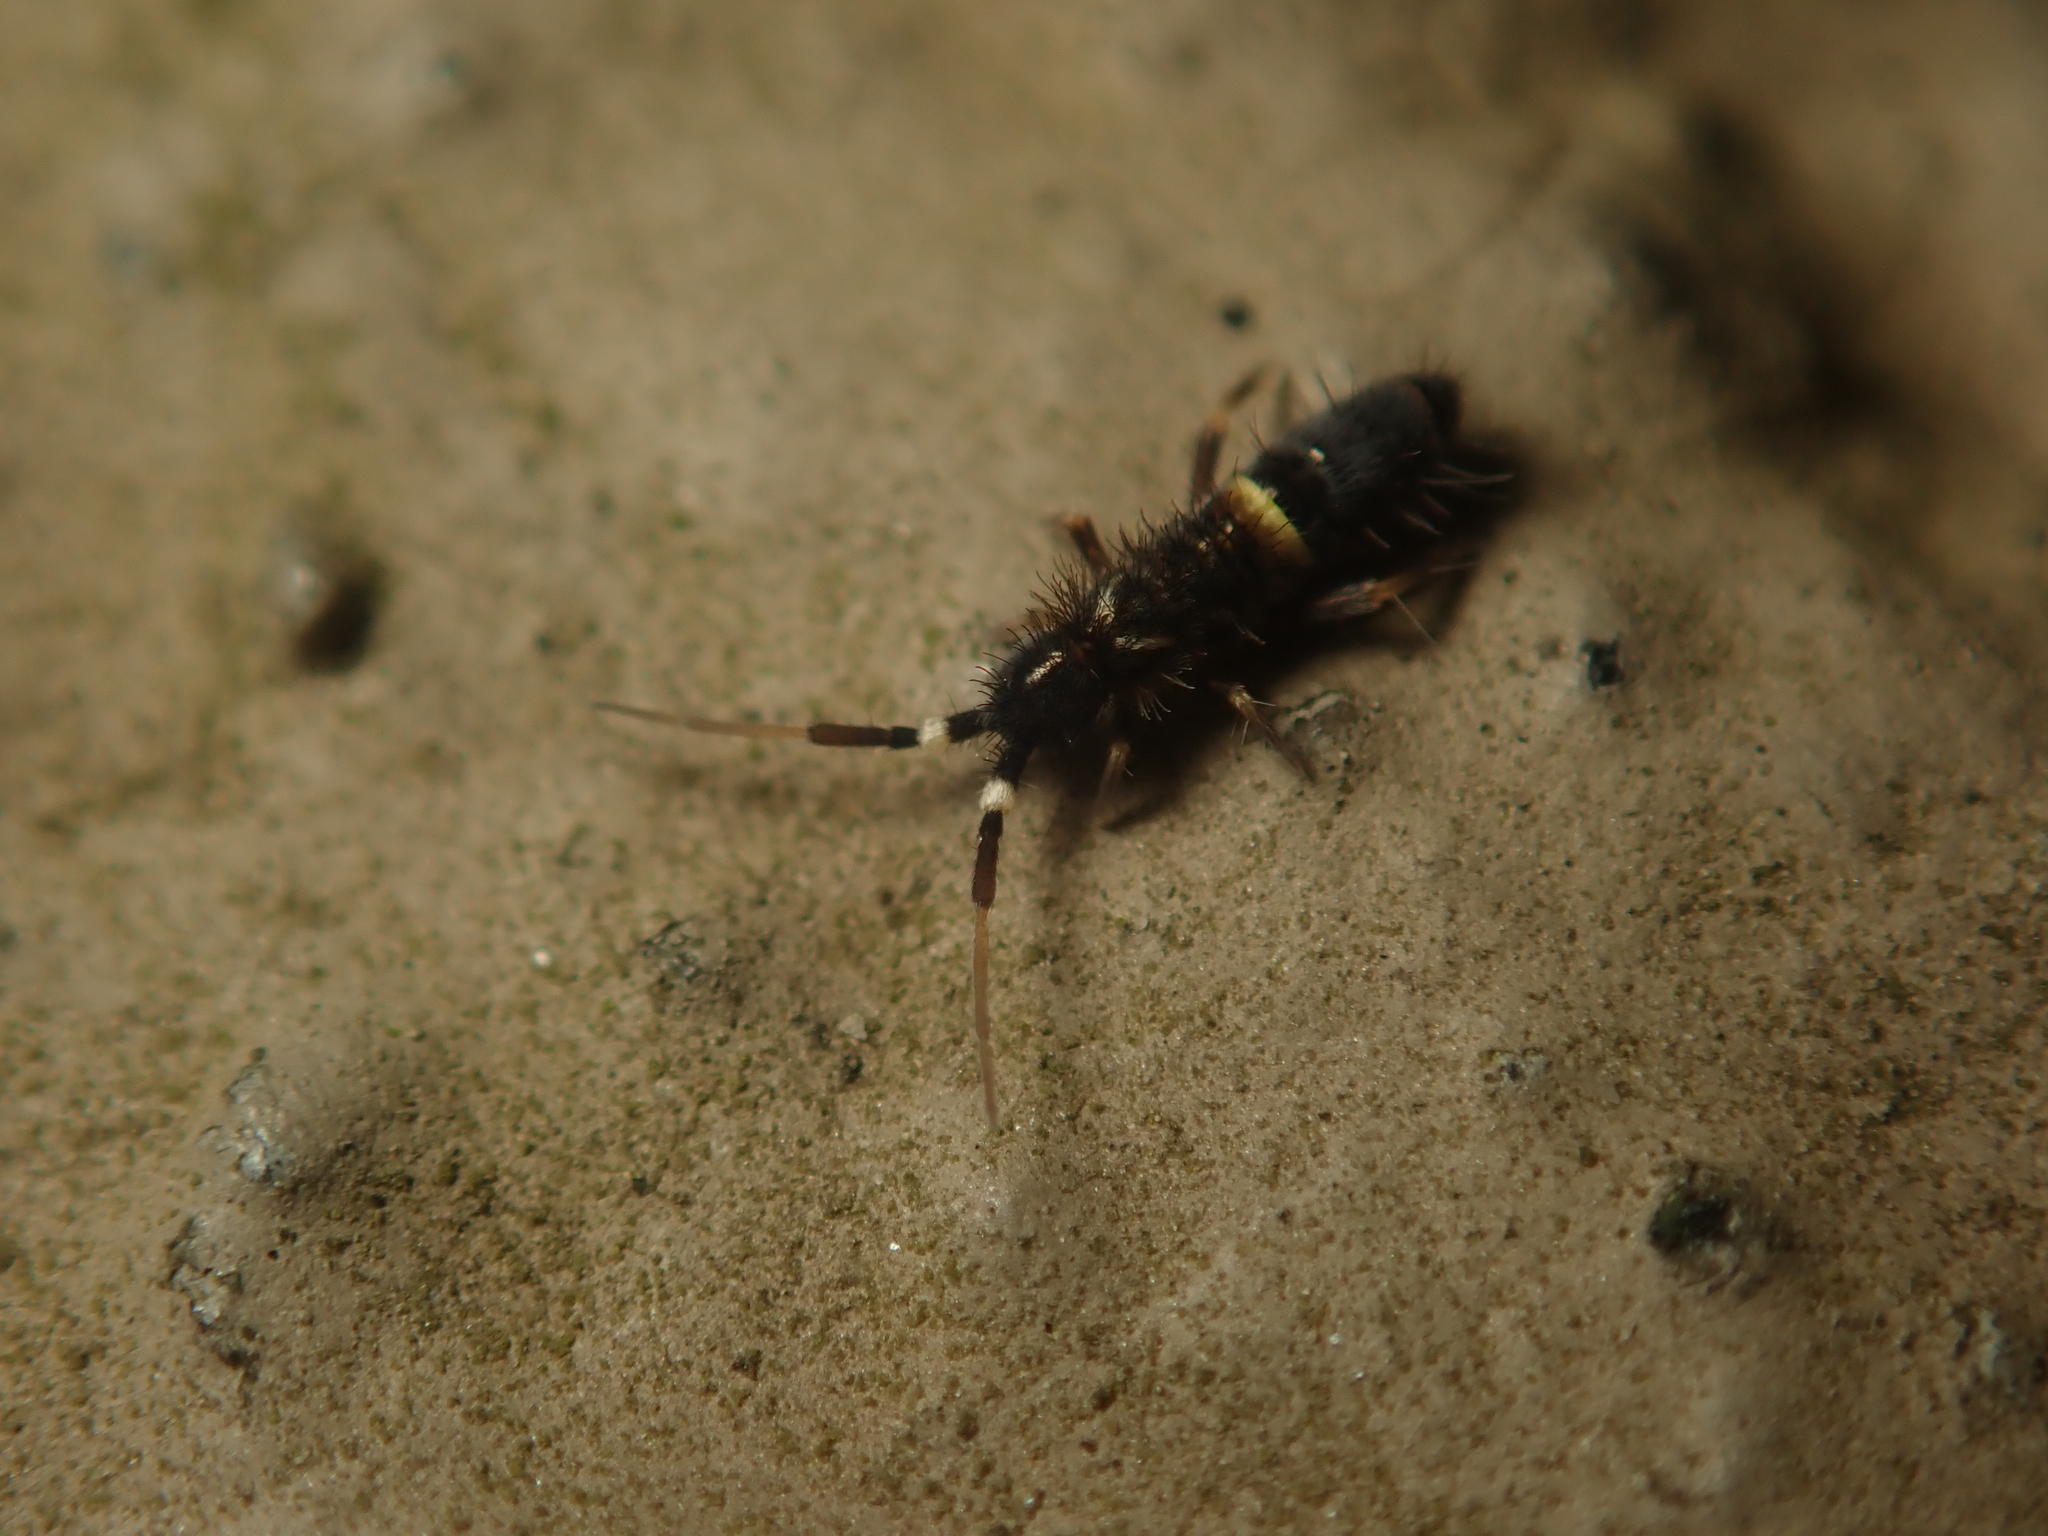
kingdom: Animalia
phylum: Arthropoda
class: Collembola
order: Entomobryomorpha
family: Orchesellidae
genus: Orchesella
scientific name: Orchesella cincta
